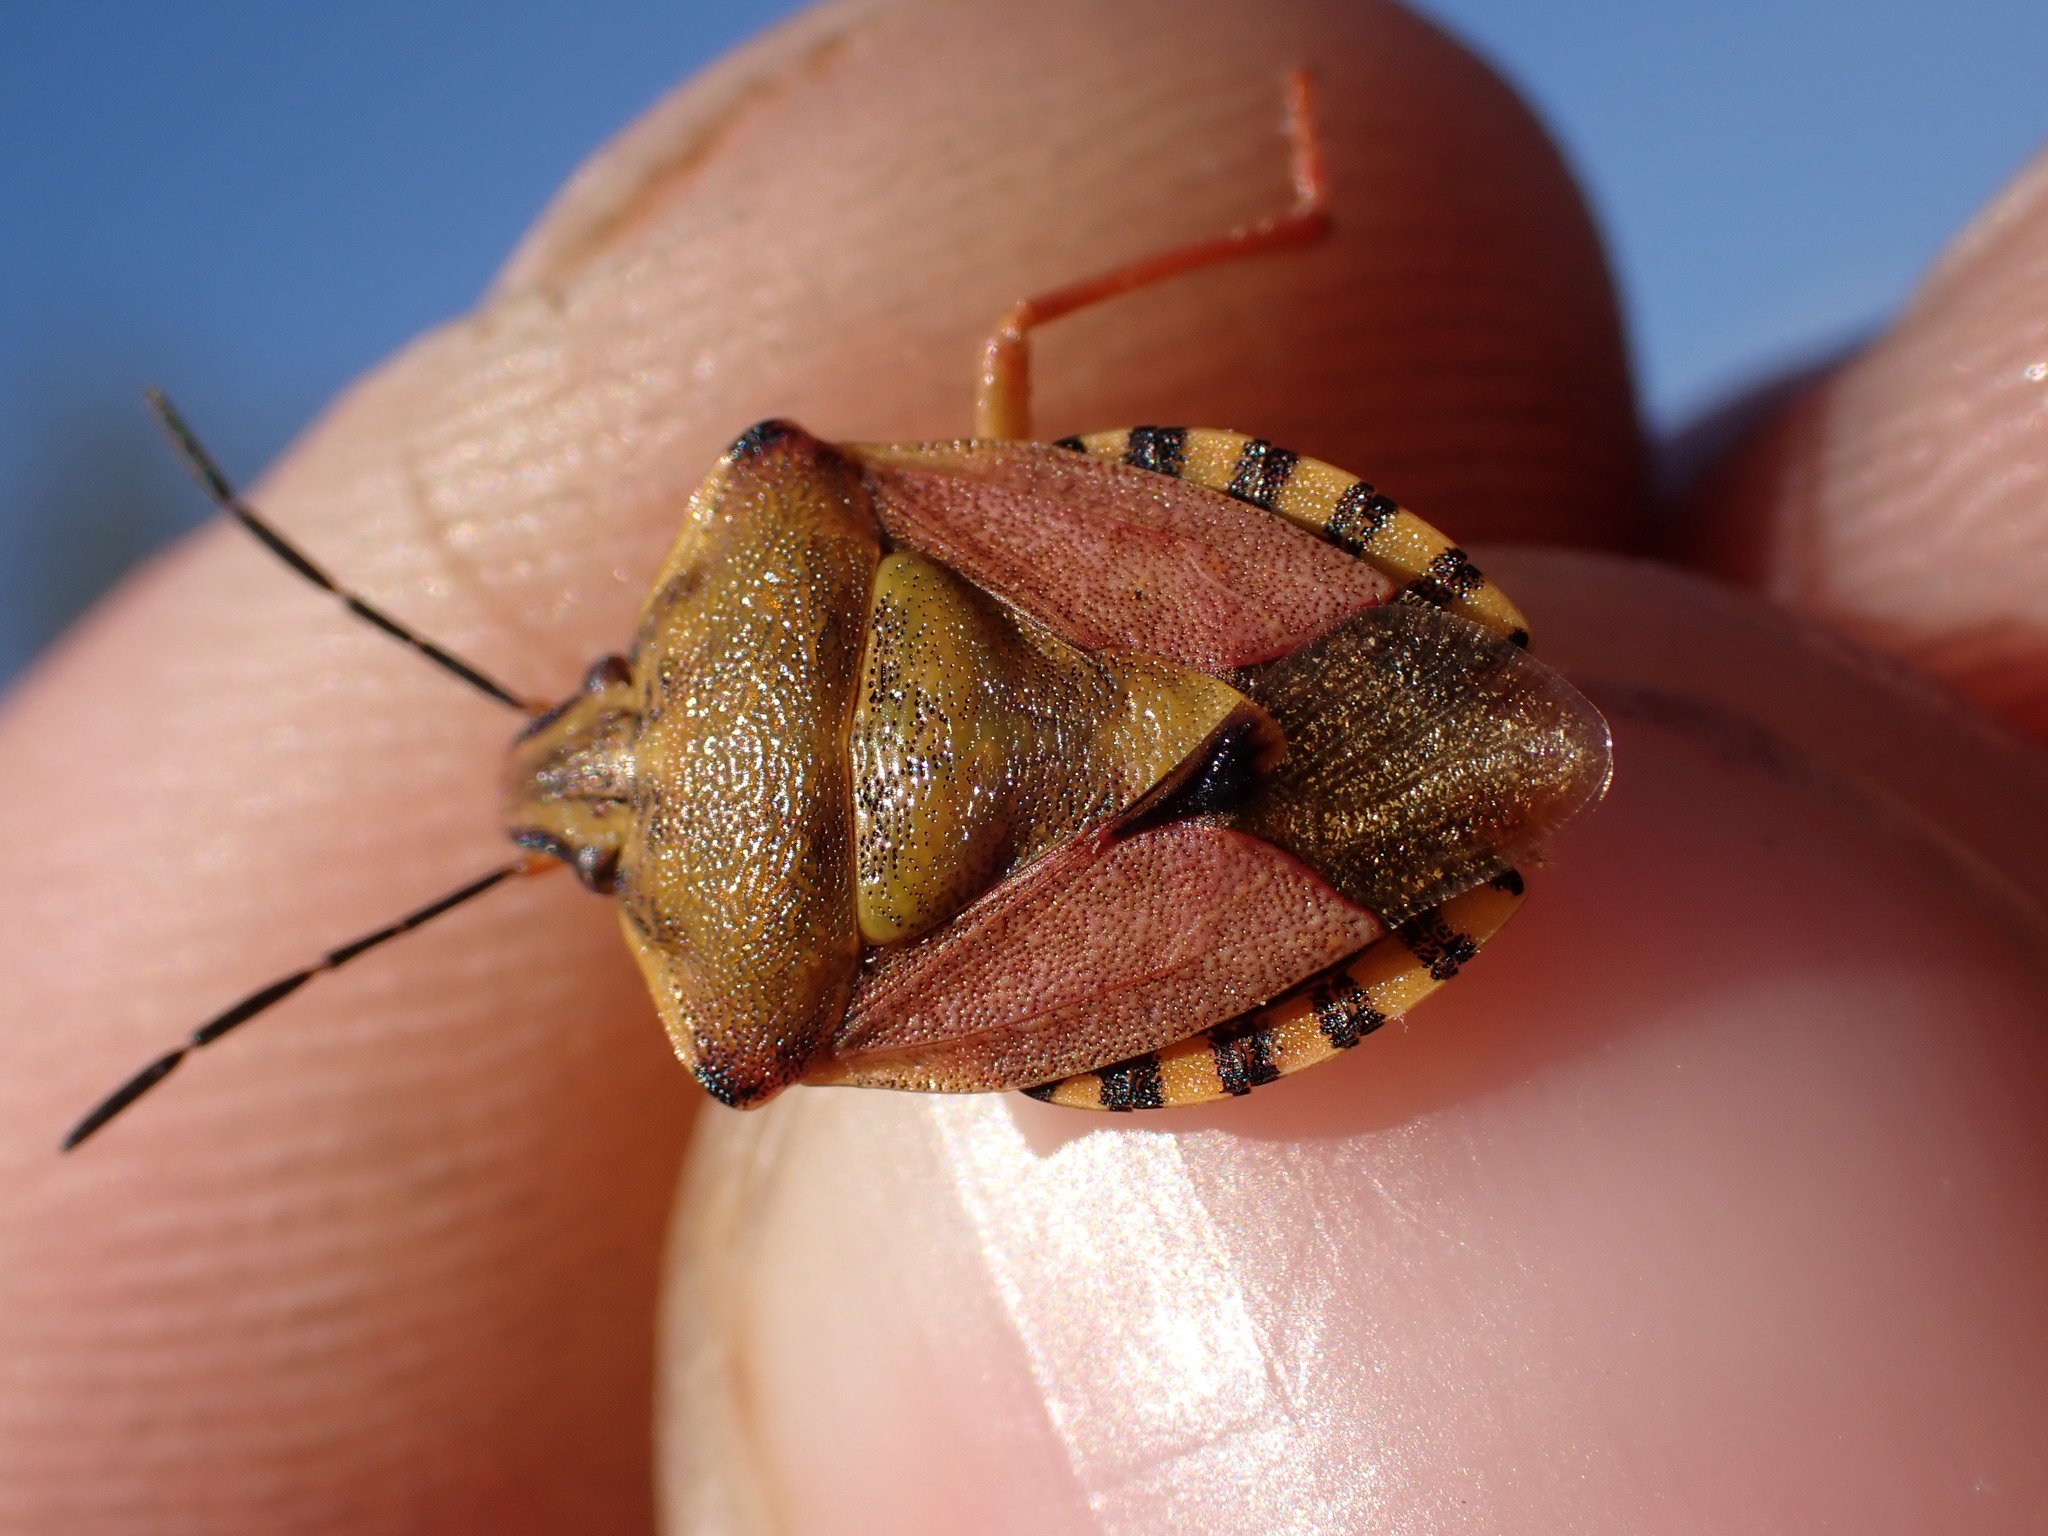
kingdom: Animalia
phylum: Arthropoda
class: Insecta
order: Hemiptera
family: Pentatomidae
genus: Carpocoris
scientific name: Carpocoris purpureipennis
